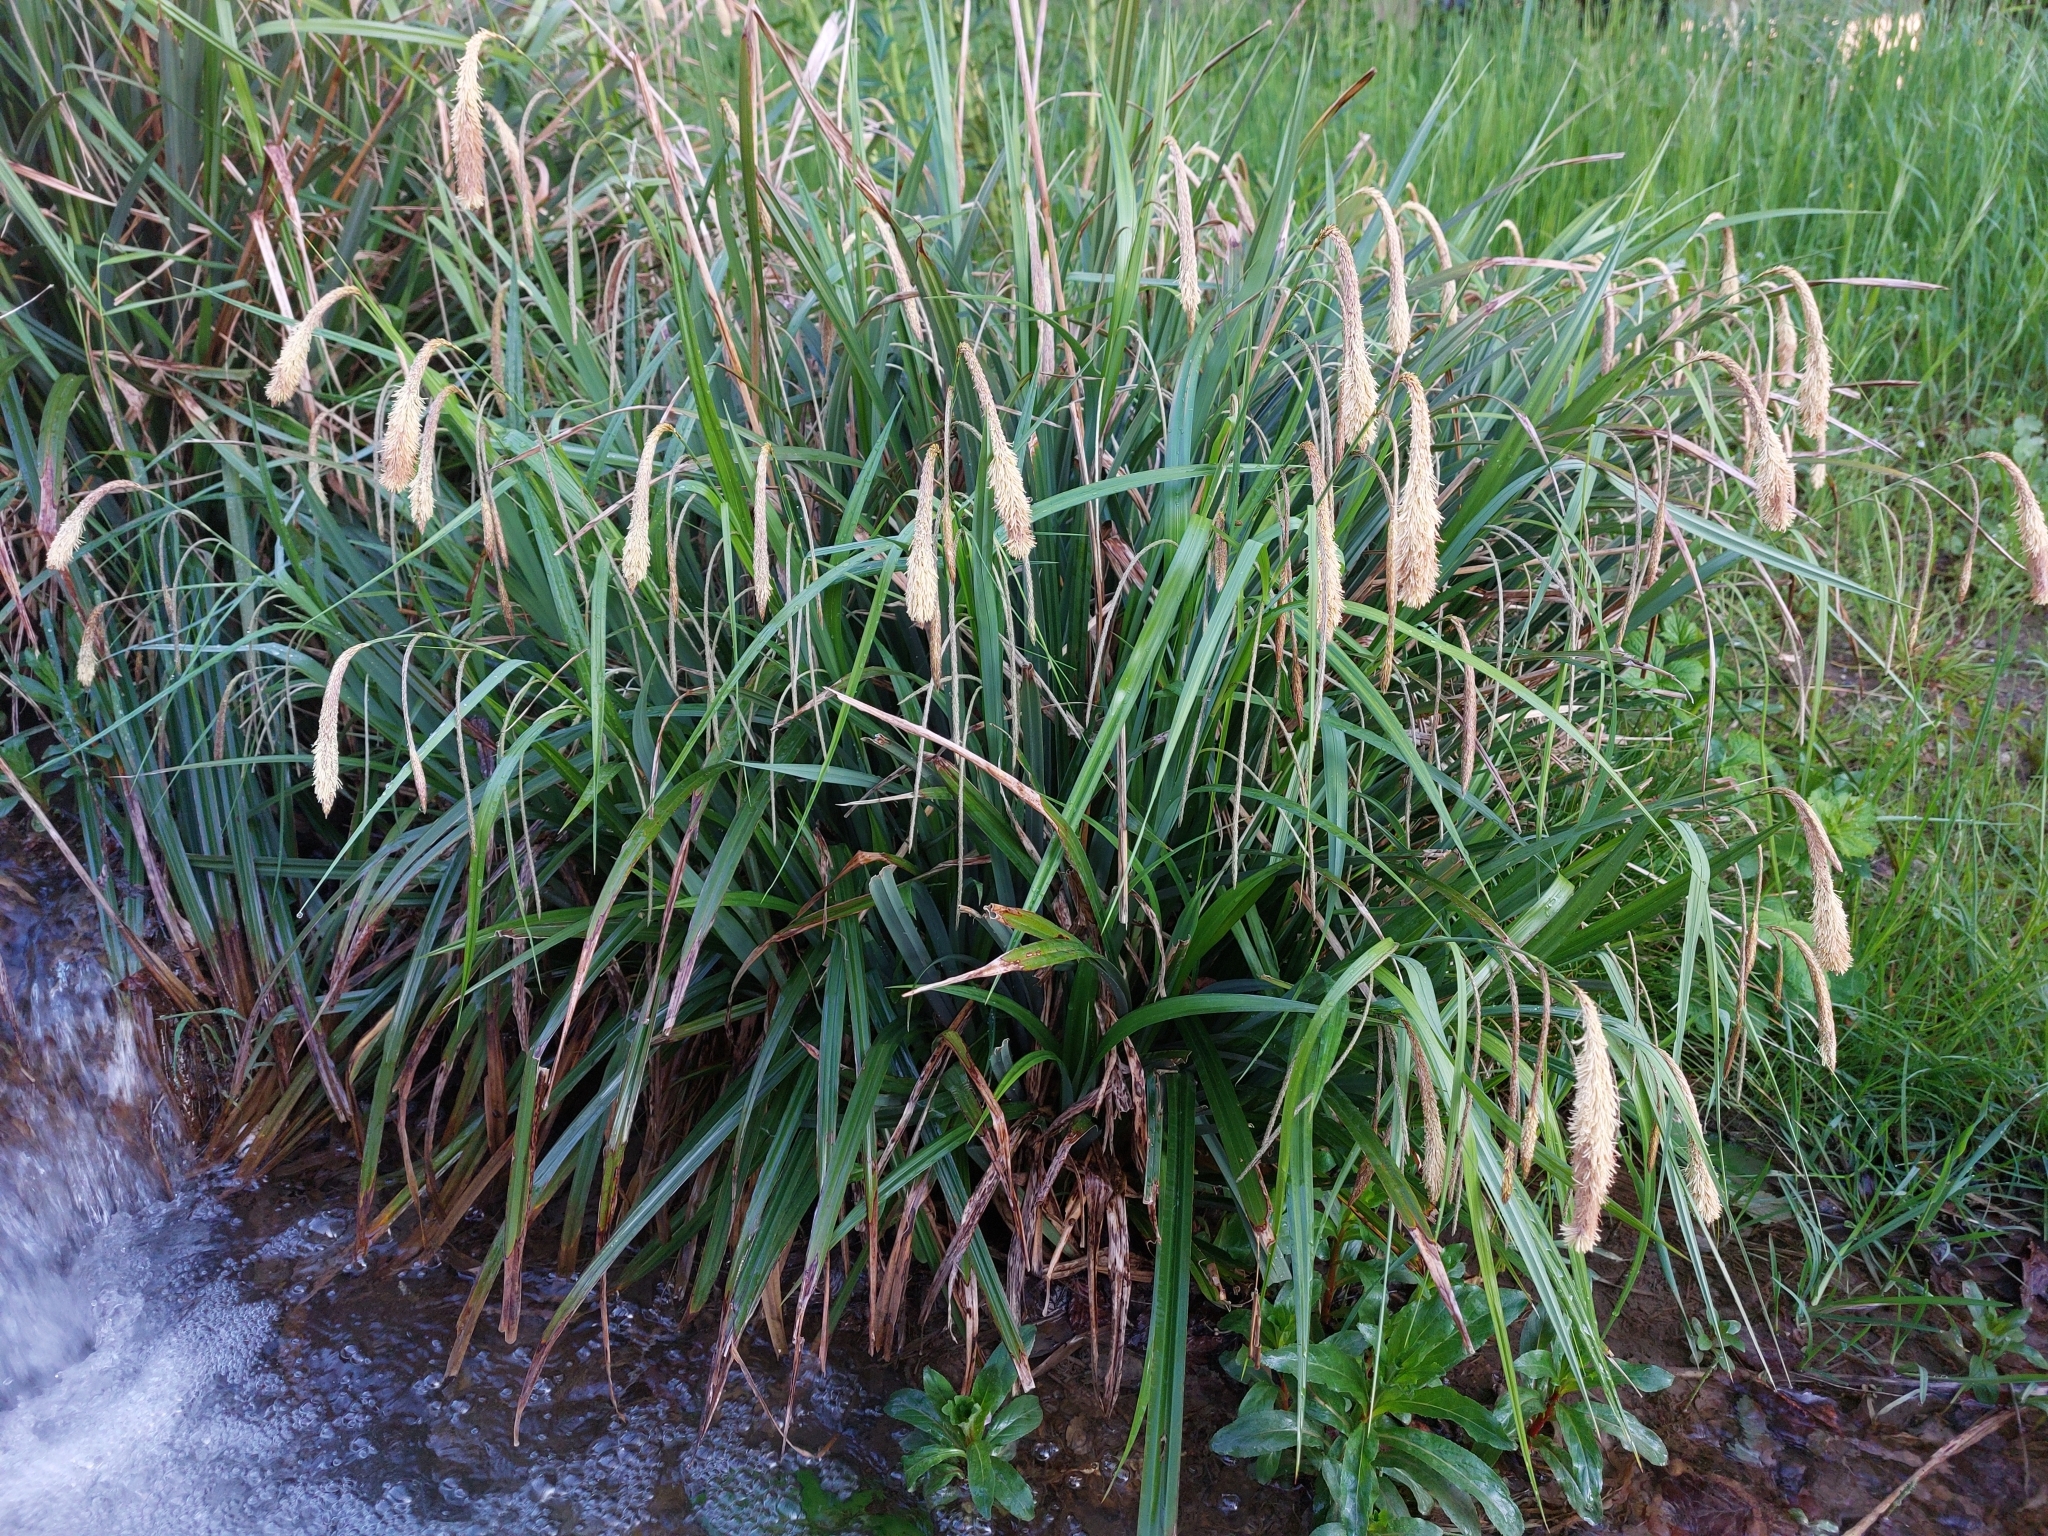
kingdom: Plantae
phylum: Tracheophyta
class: Liliopsida
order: Poales
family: Cyperaceae
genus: Carex
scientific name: Carex pendula
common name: Pendulous sedge
